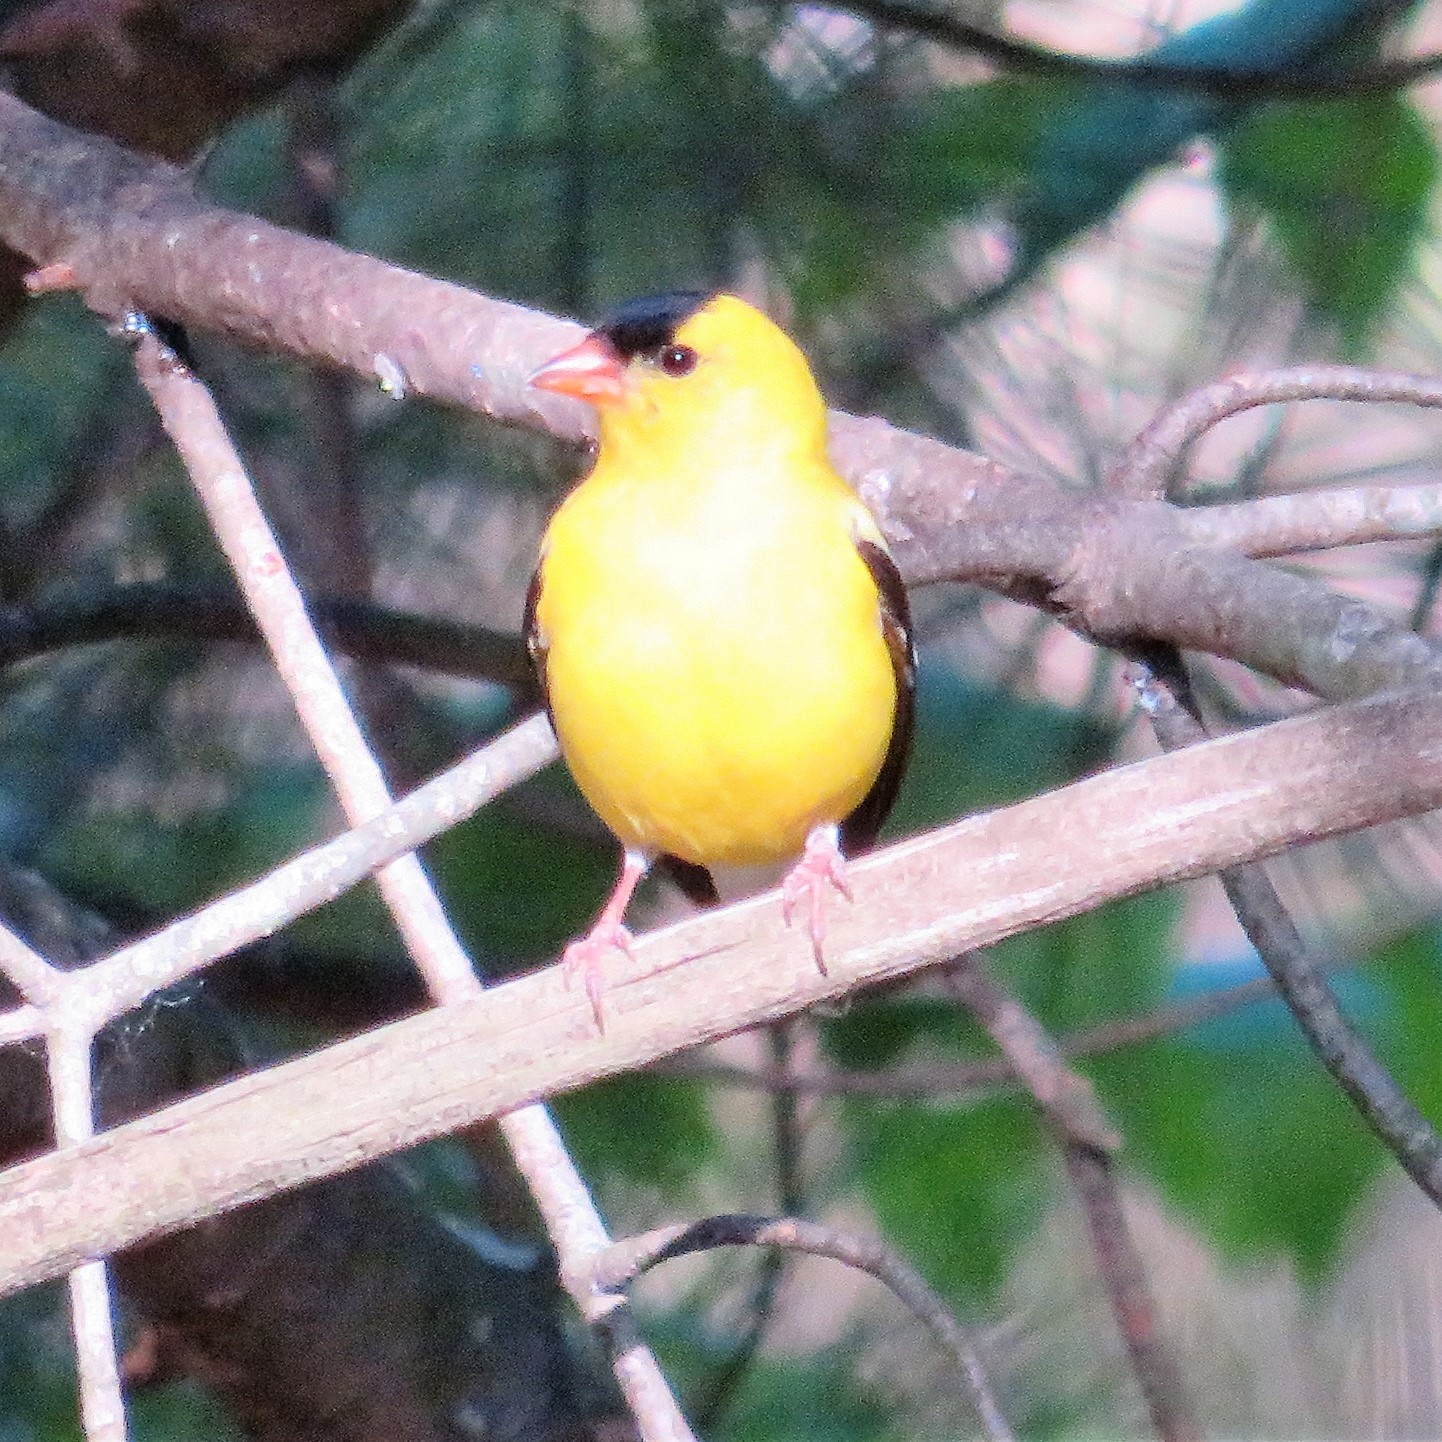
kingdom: Animalia
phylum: Chordata
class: Aves
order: Passeriformes
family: Fringillidae
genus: Spinus
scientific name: Spinus tristis
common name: American goldfinch
